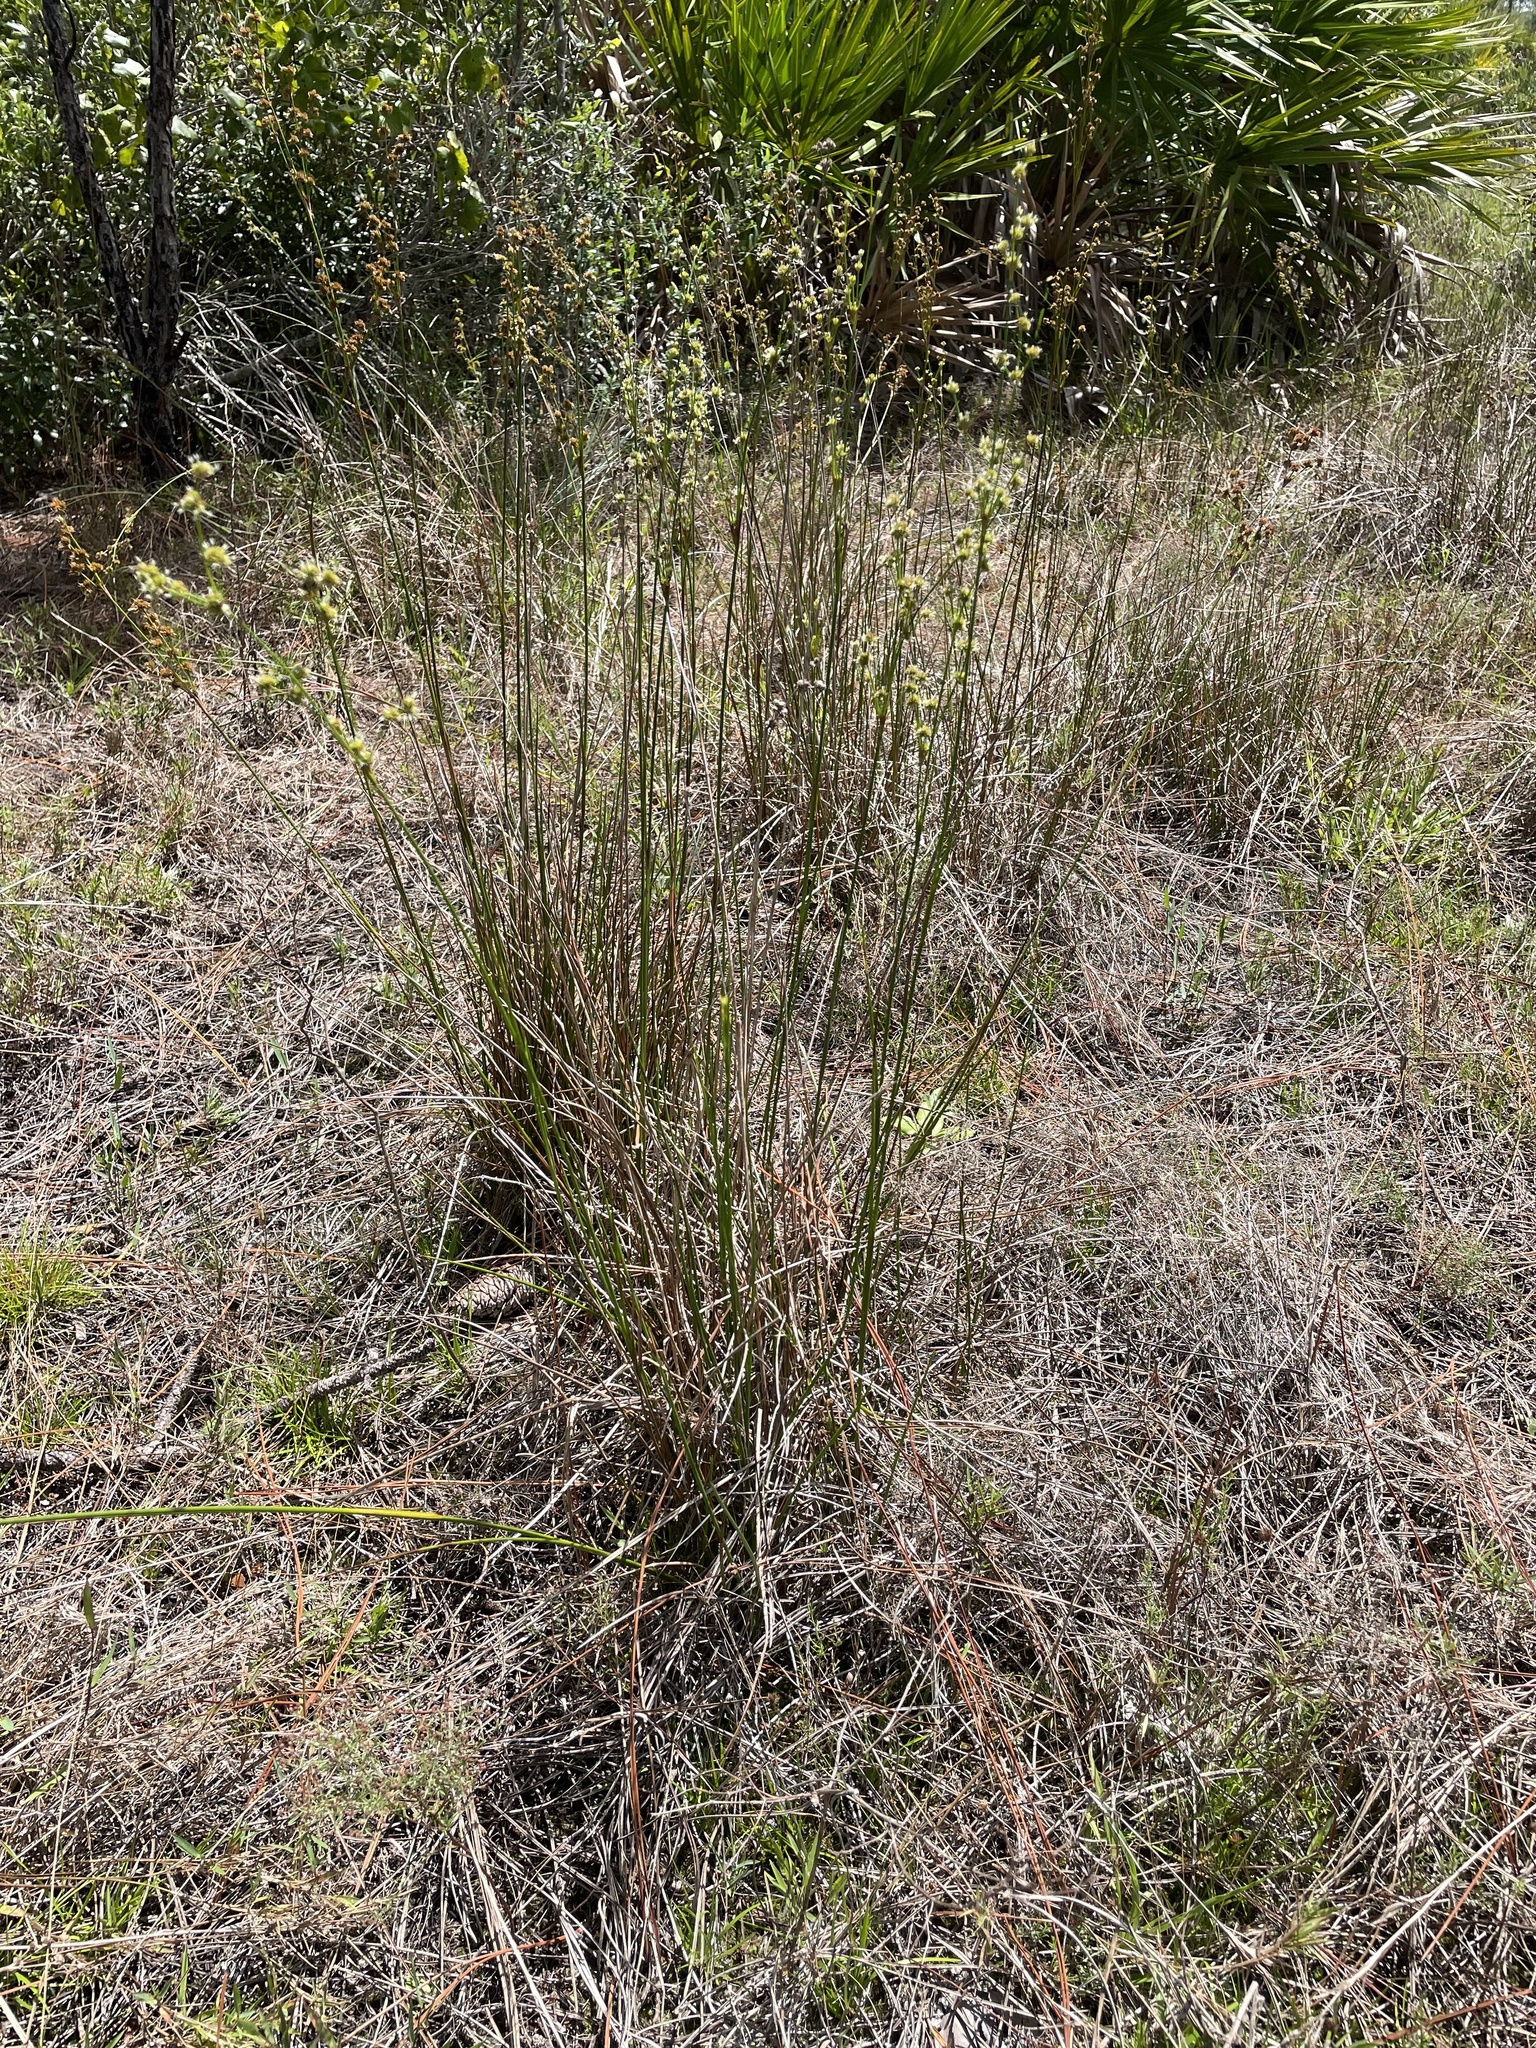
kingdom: Plantae
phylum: Tracheophyta
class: Liliopsida
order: Poales
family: Juncaceae
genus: Juncus
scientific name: Juncus scirpoides
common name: Needlepod rush
